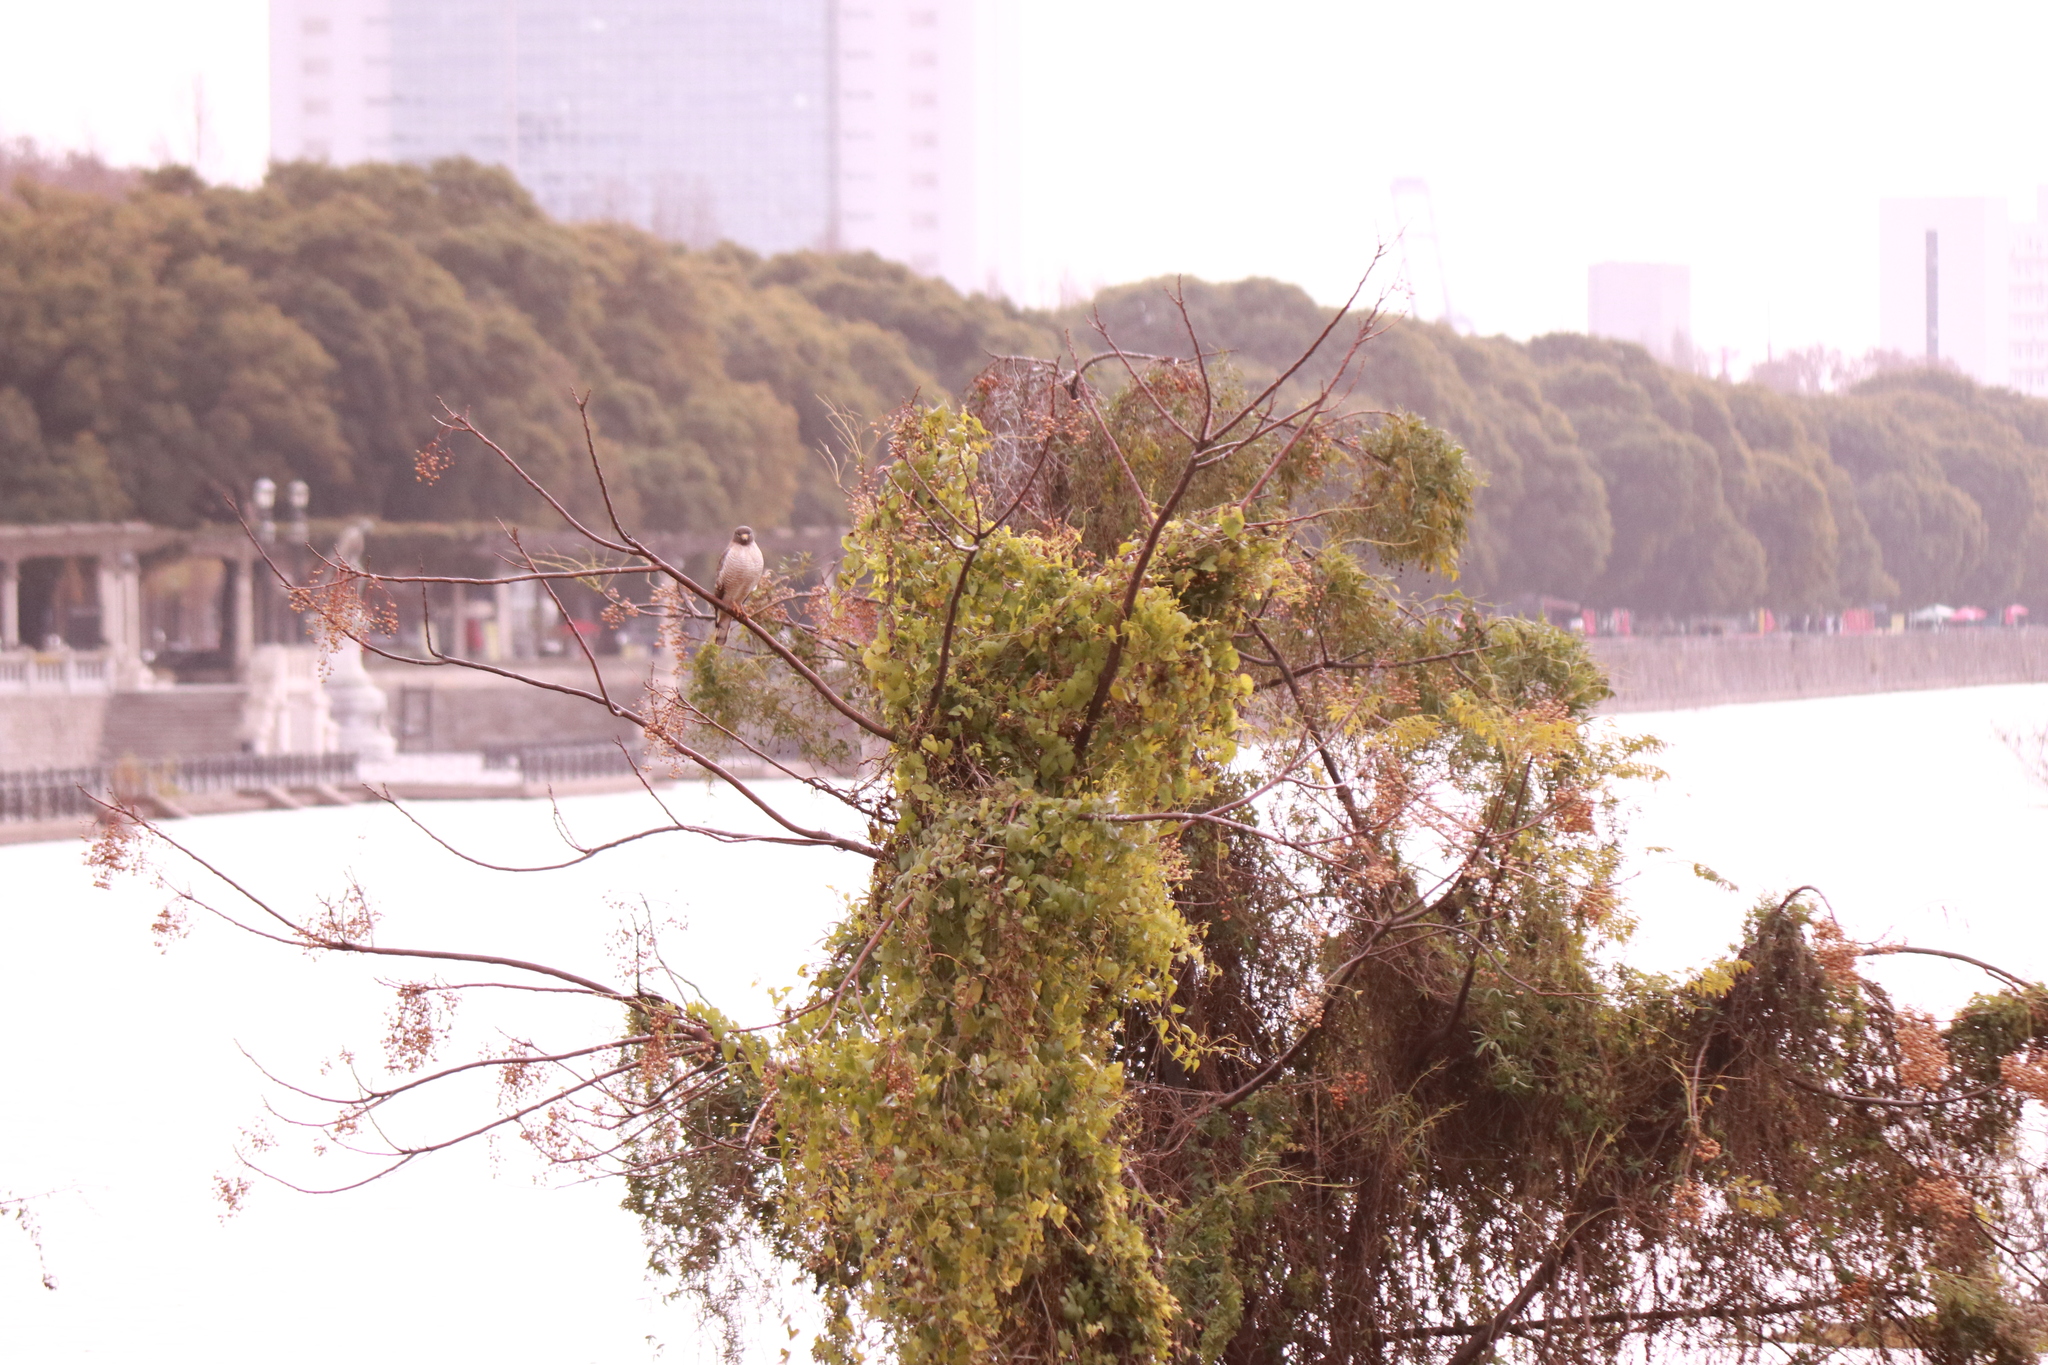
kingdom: Animalia
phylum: Chordata
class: Aves
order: Accipitriformes
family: Accipitridae
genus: Rupornis
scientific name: Rupornis magnirostris
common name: Roadside hawk
